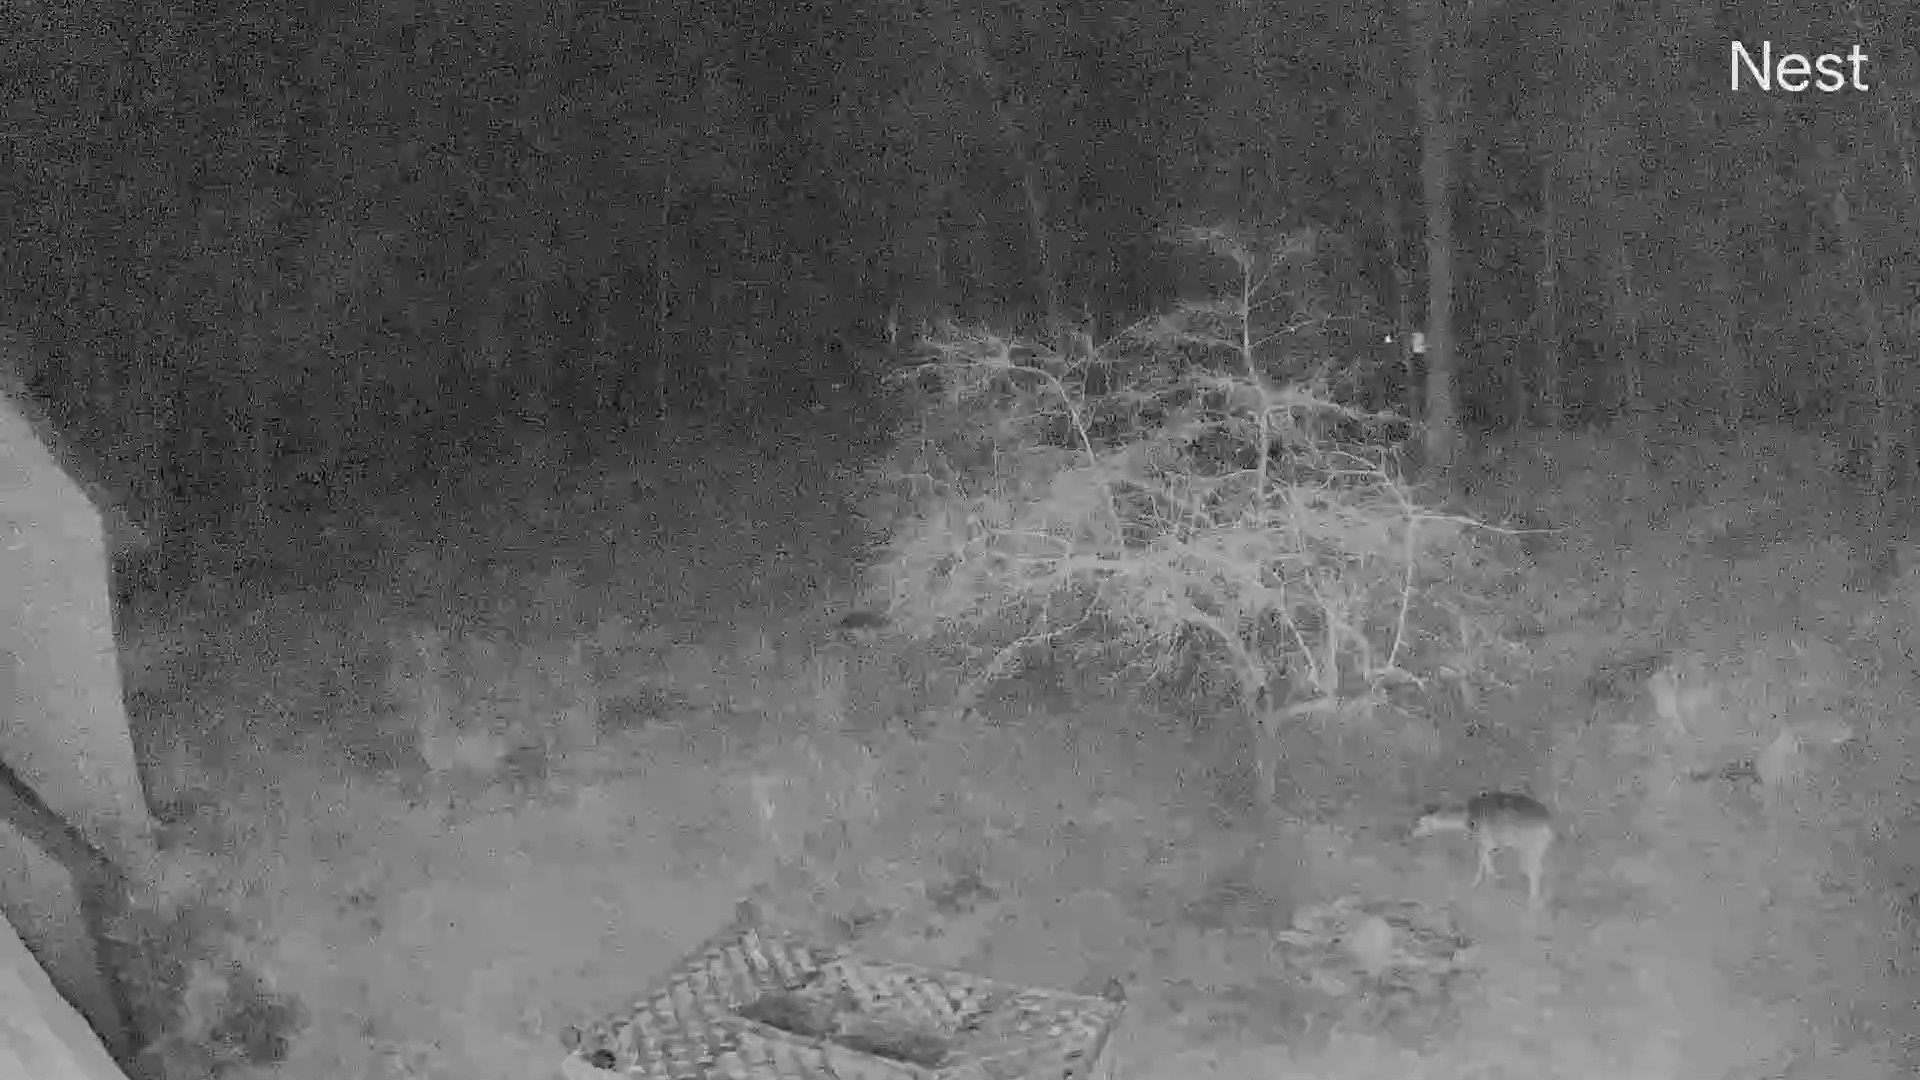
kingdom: Animalia
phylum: Chordata
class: Mammalia
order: Artiodactyla
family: Cervidae
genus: Odocoileus
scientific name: Odocoileus virginianus
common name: White-tailed deer
